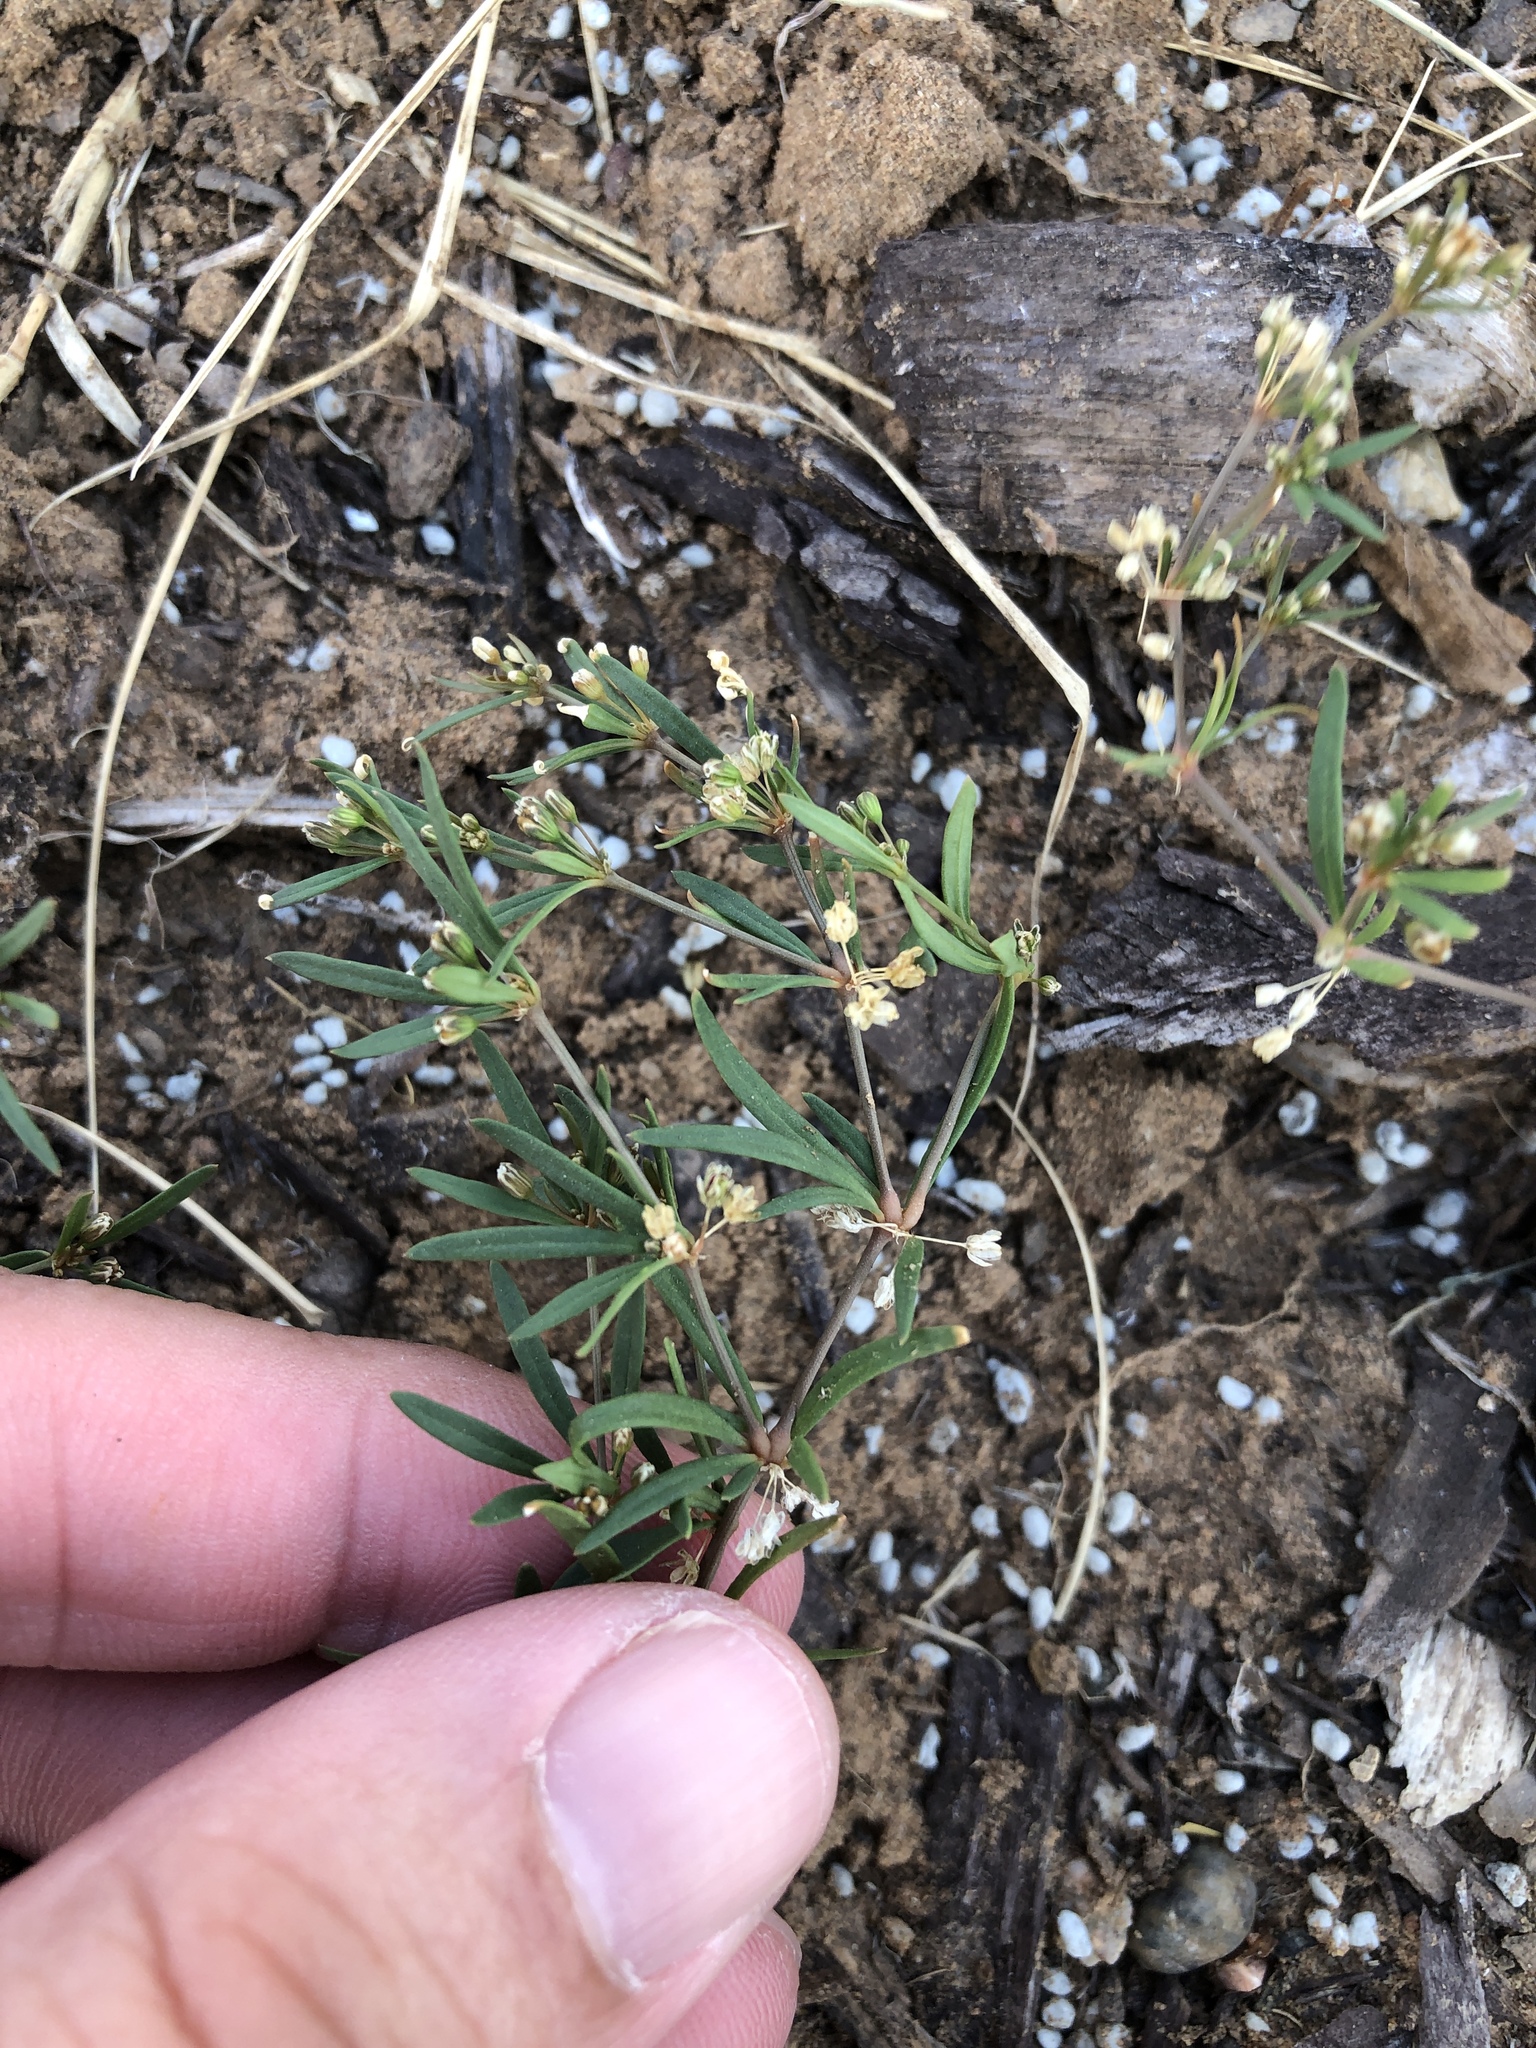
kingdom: Plantae
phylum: Tracheophyta
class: Magnoliopsida
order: Caryophyllales
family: Molluginaceae
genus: Mollugo
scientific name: Mollugo verticillata
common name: Green carpetweed
